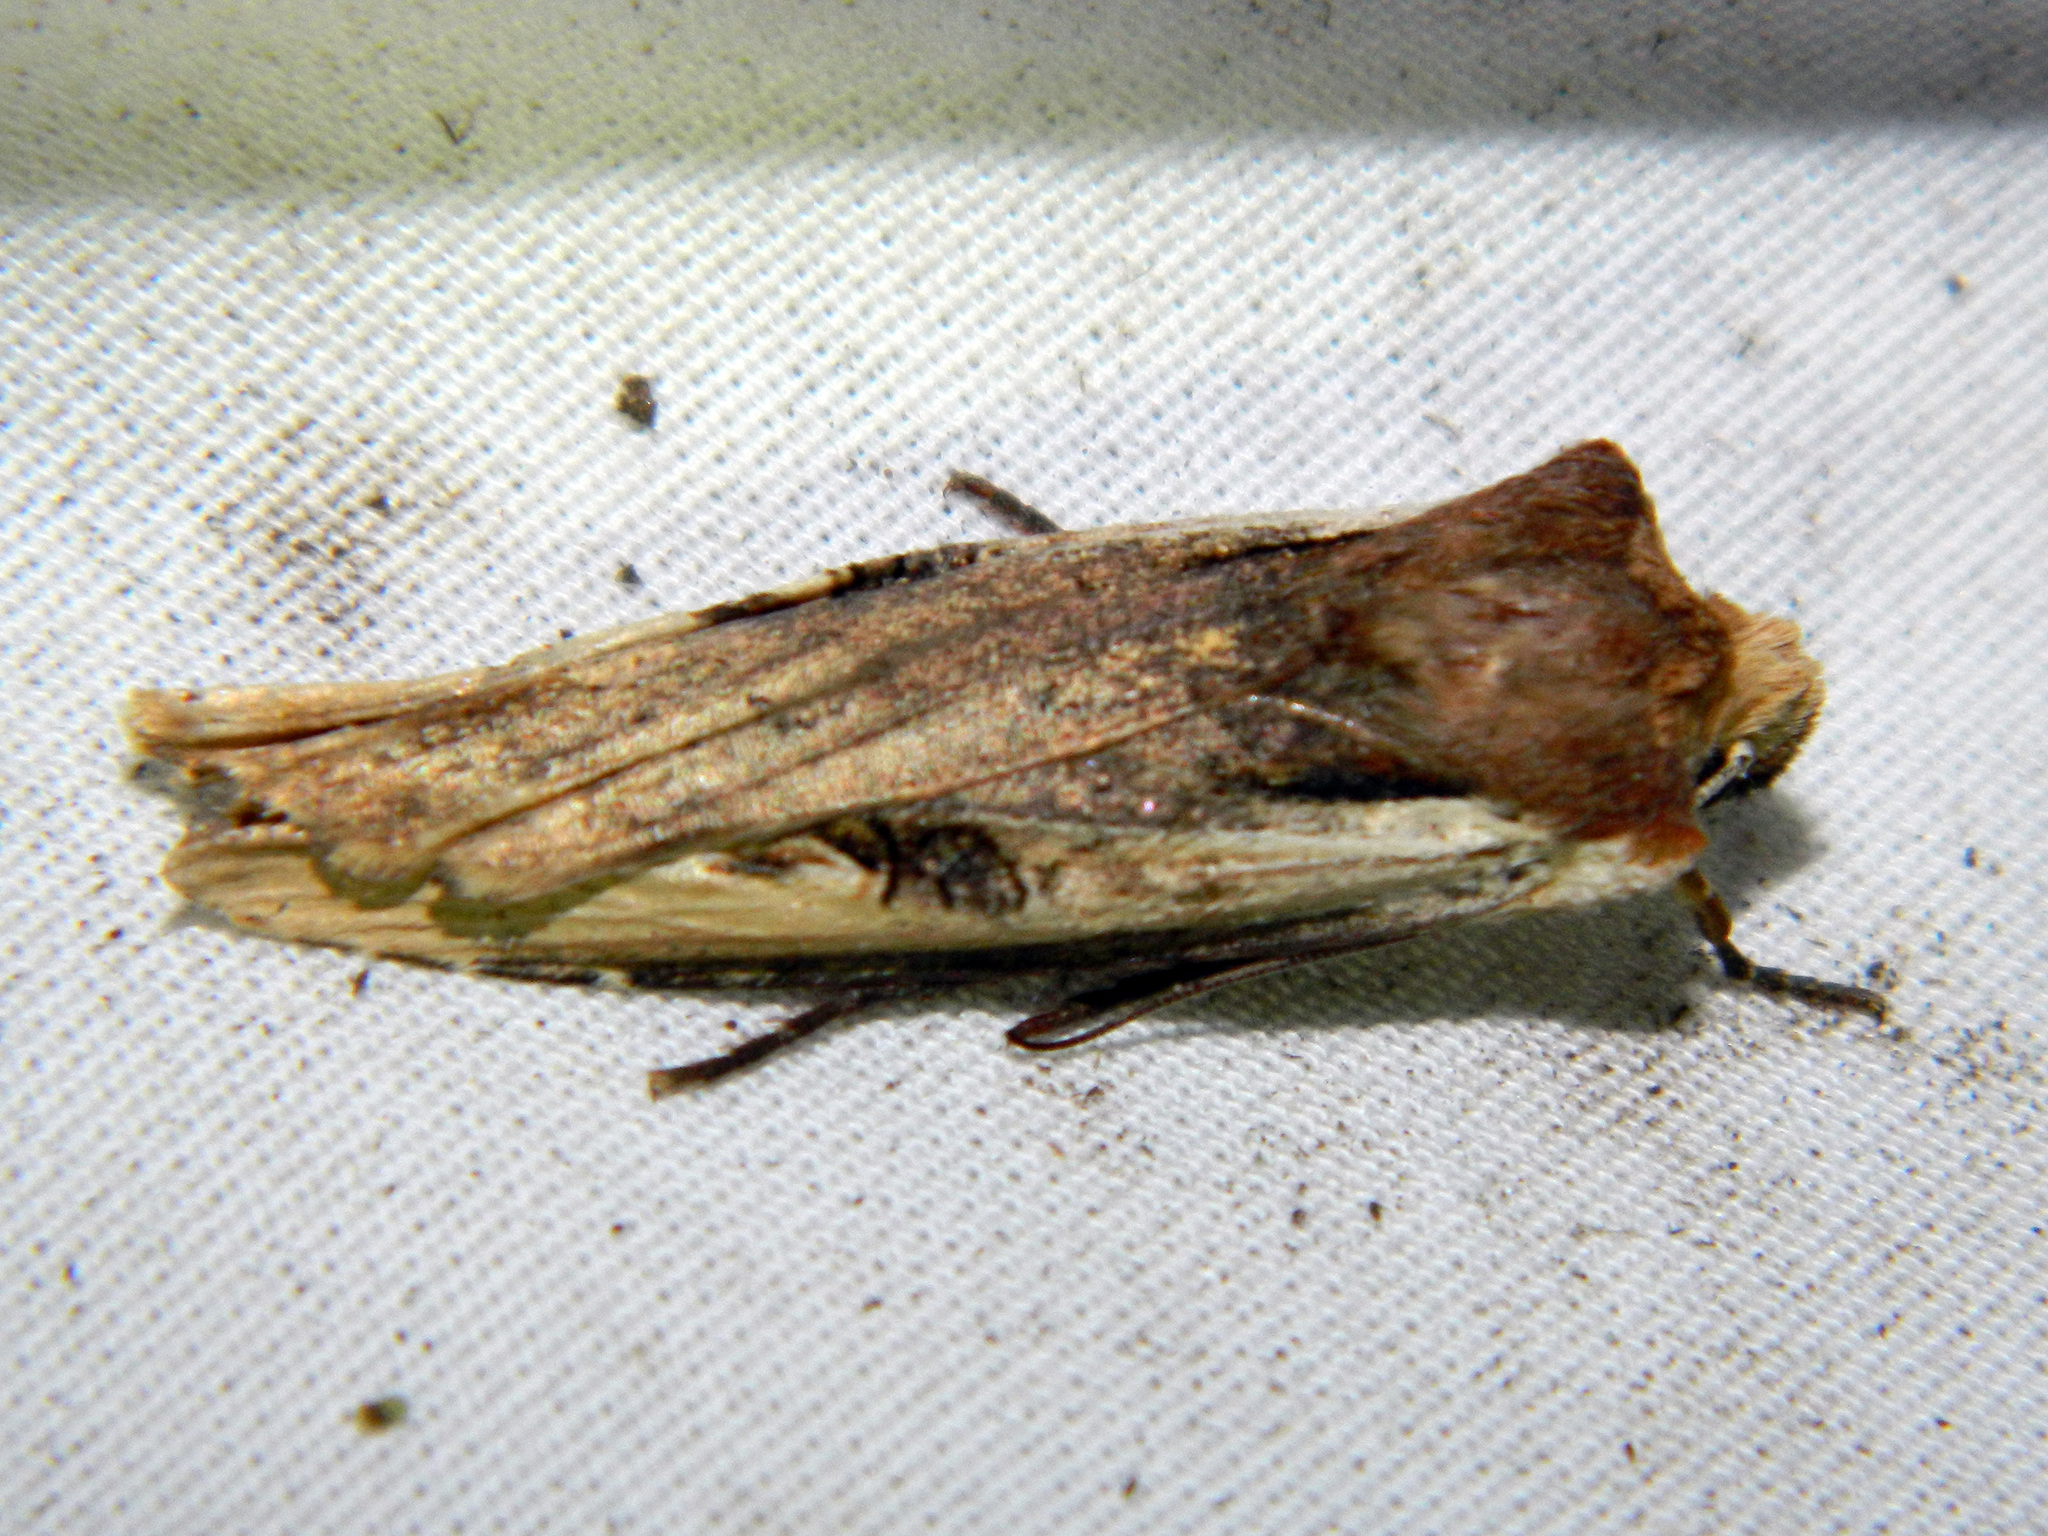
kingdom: Animalia
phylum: Arthropoda
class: Insecta
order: Lepidoptera
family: Noctuidae
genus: Xylena
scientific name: Xylena curvimacula
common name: Dot-and-dash swordgrass moth
